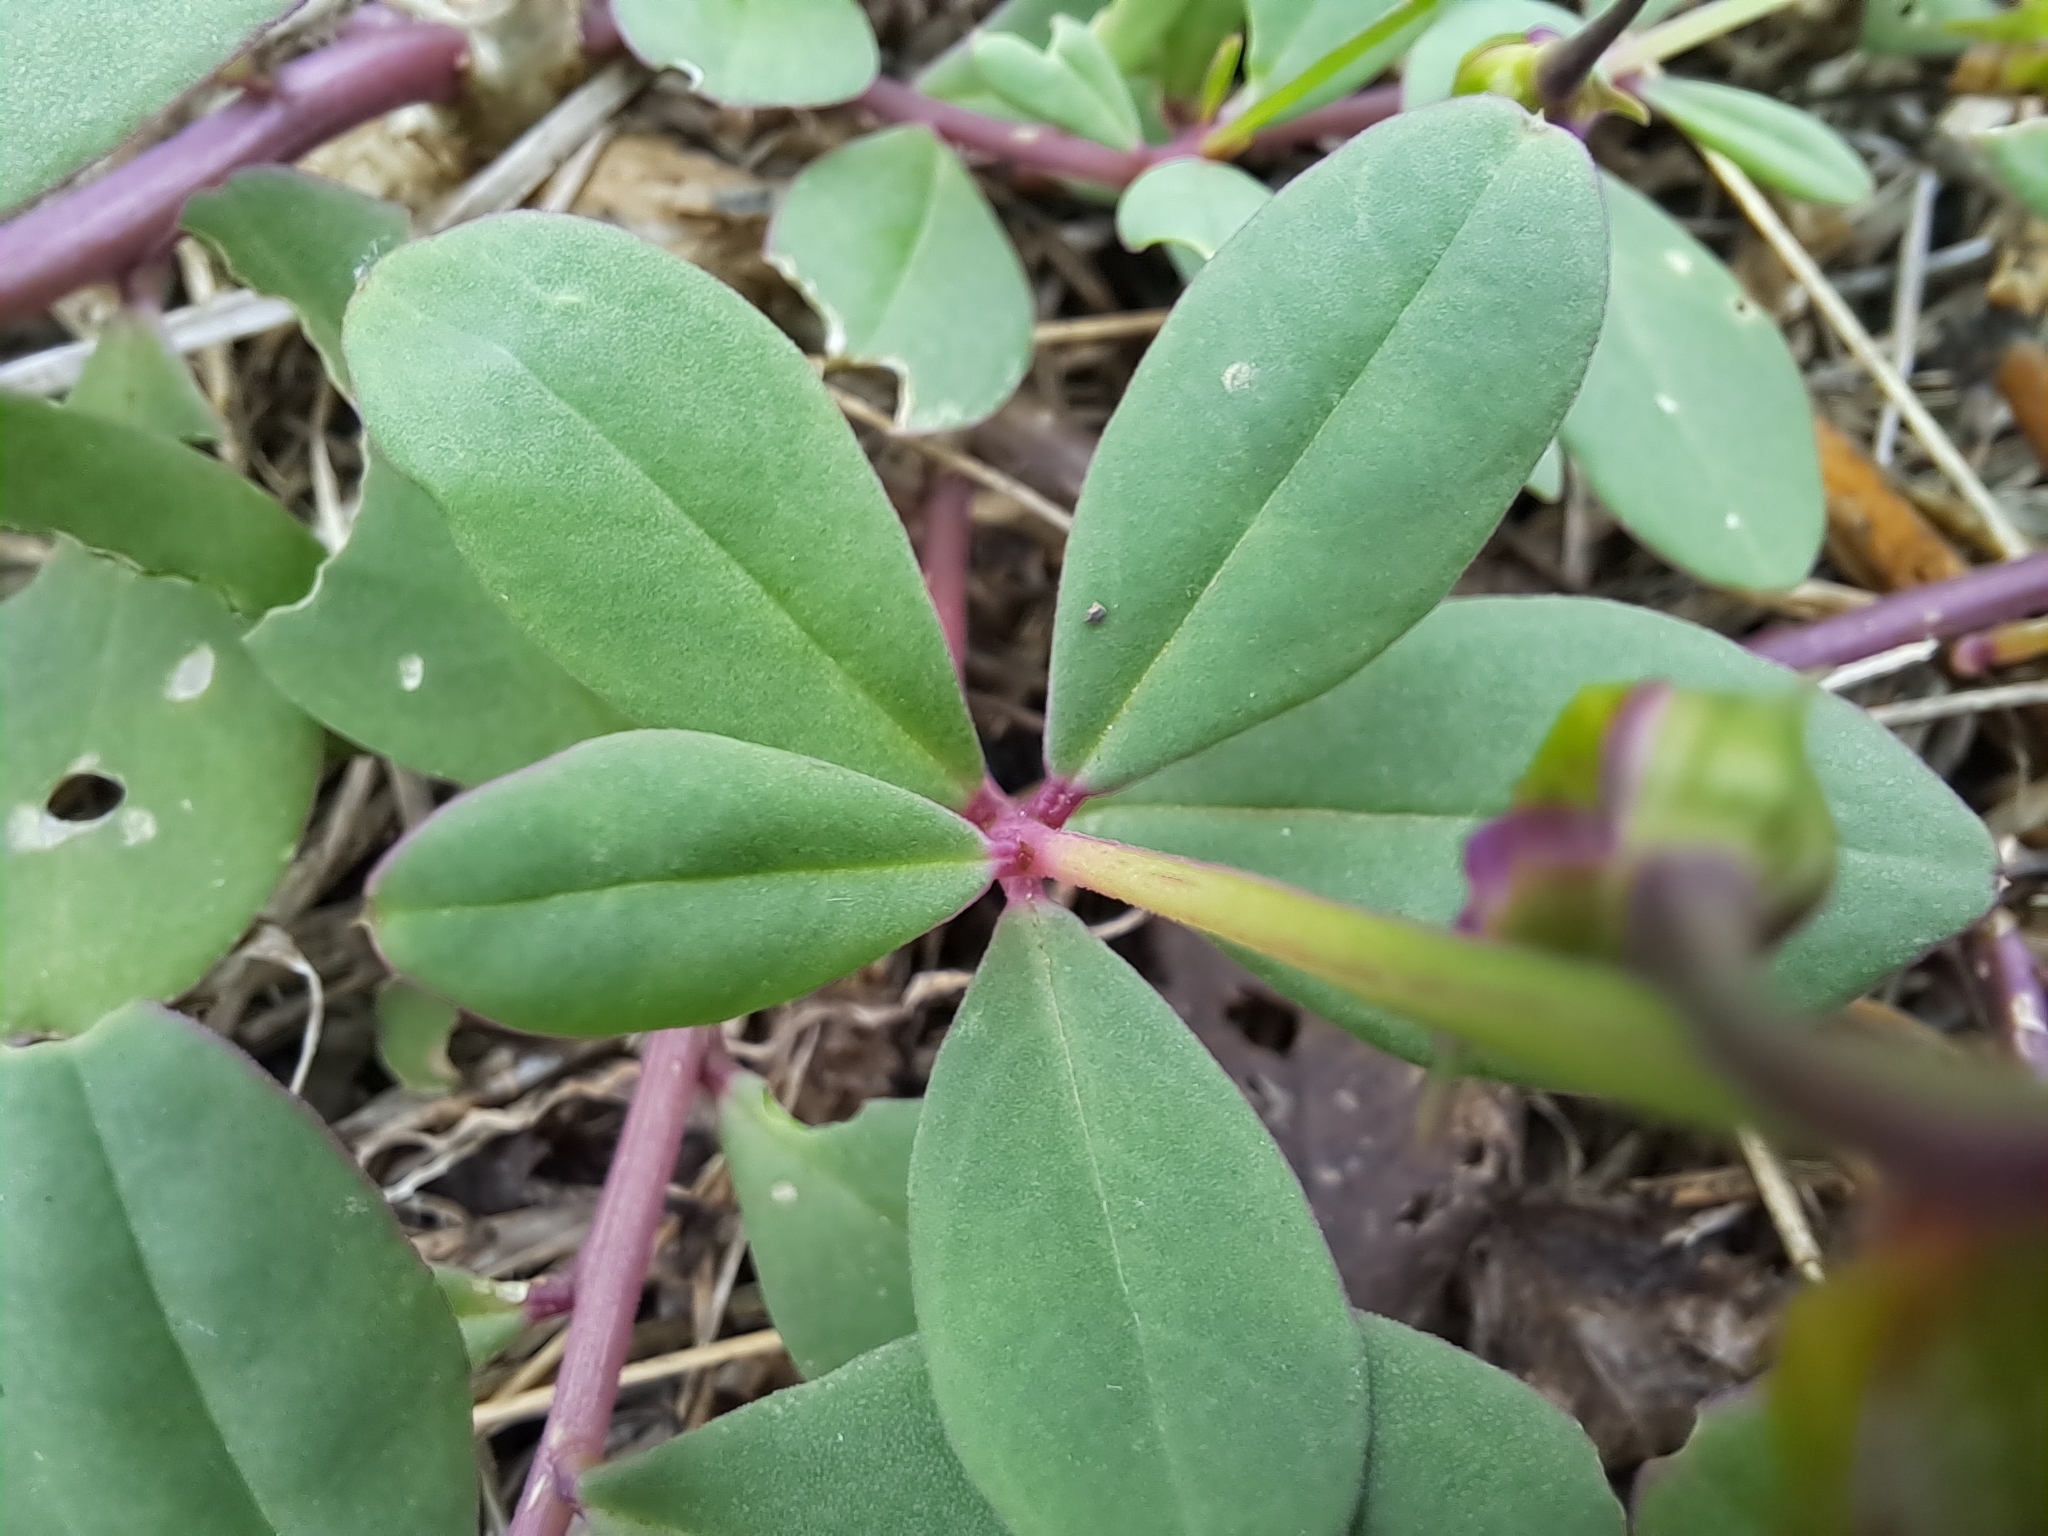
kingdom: Plantae
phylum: Tracheophyta
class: Magnoliopsida
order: Caryophyllales
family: Talinaceae
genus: Talinum
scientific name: Talinum fruticosum
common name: Verdolaga-francesa
